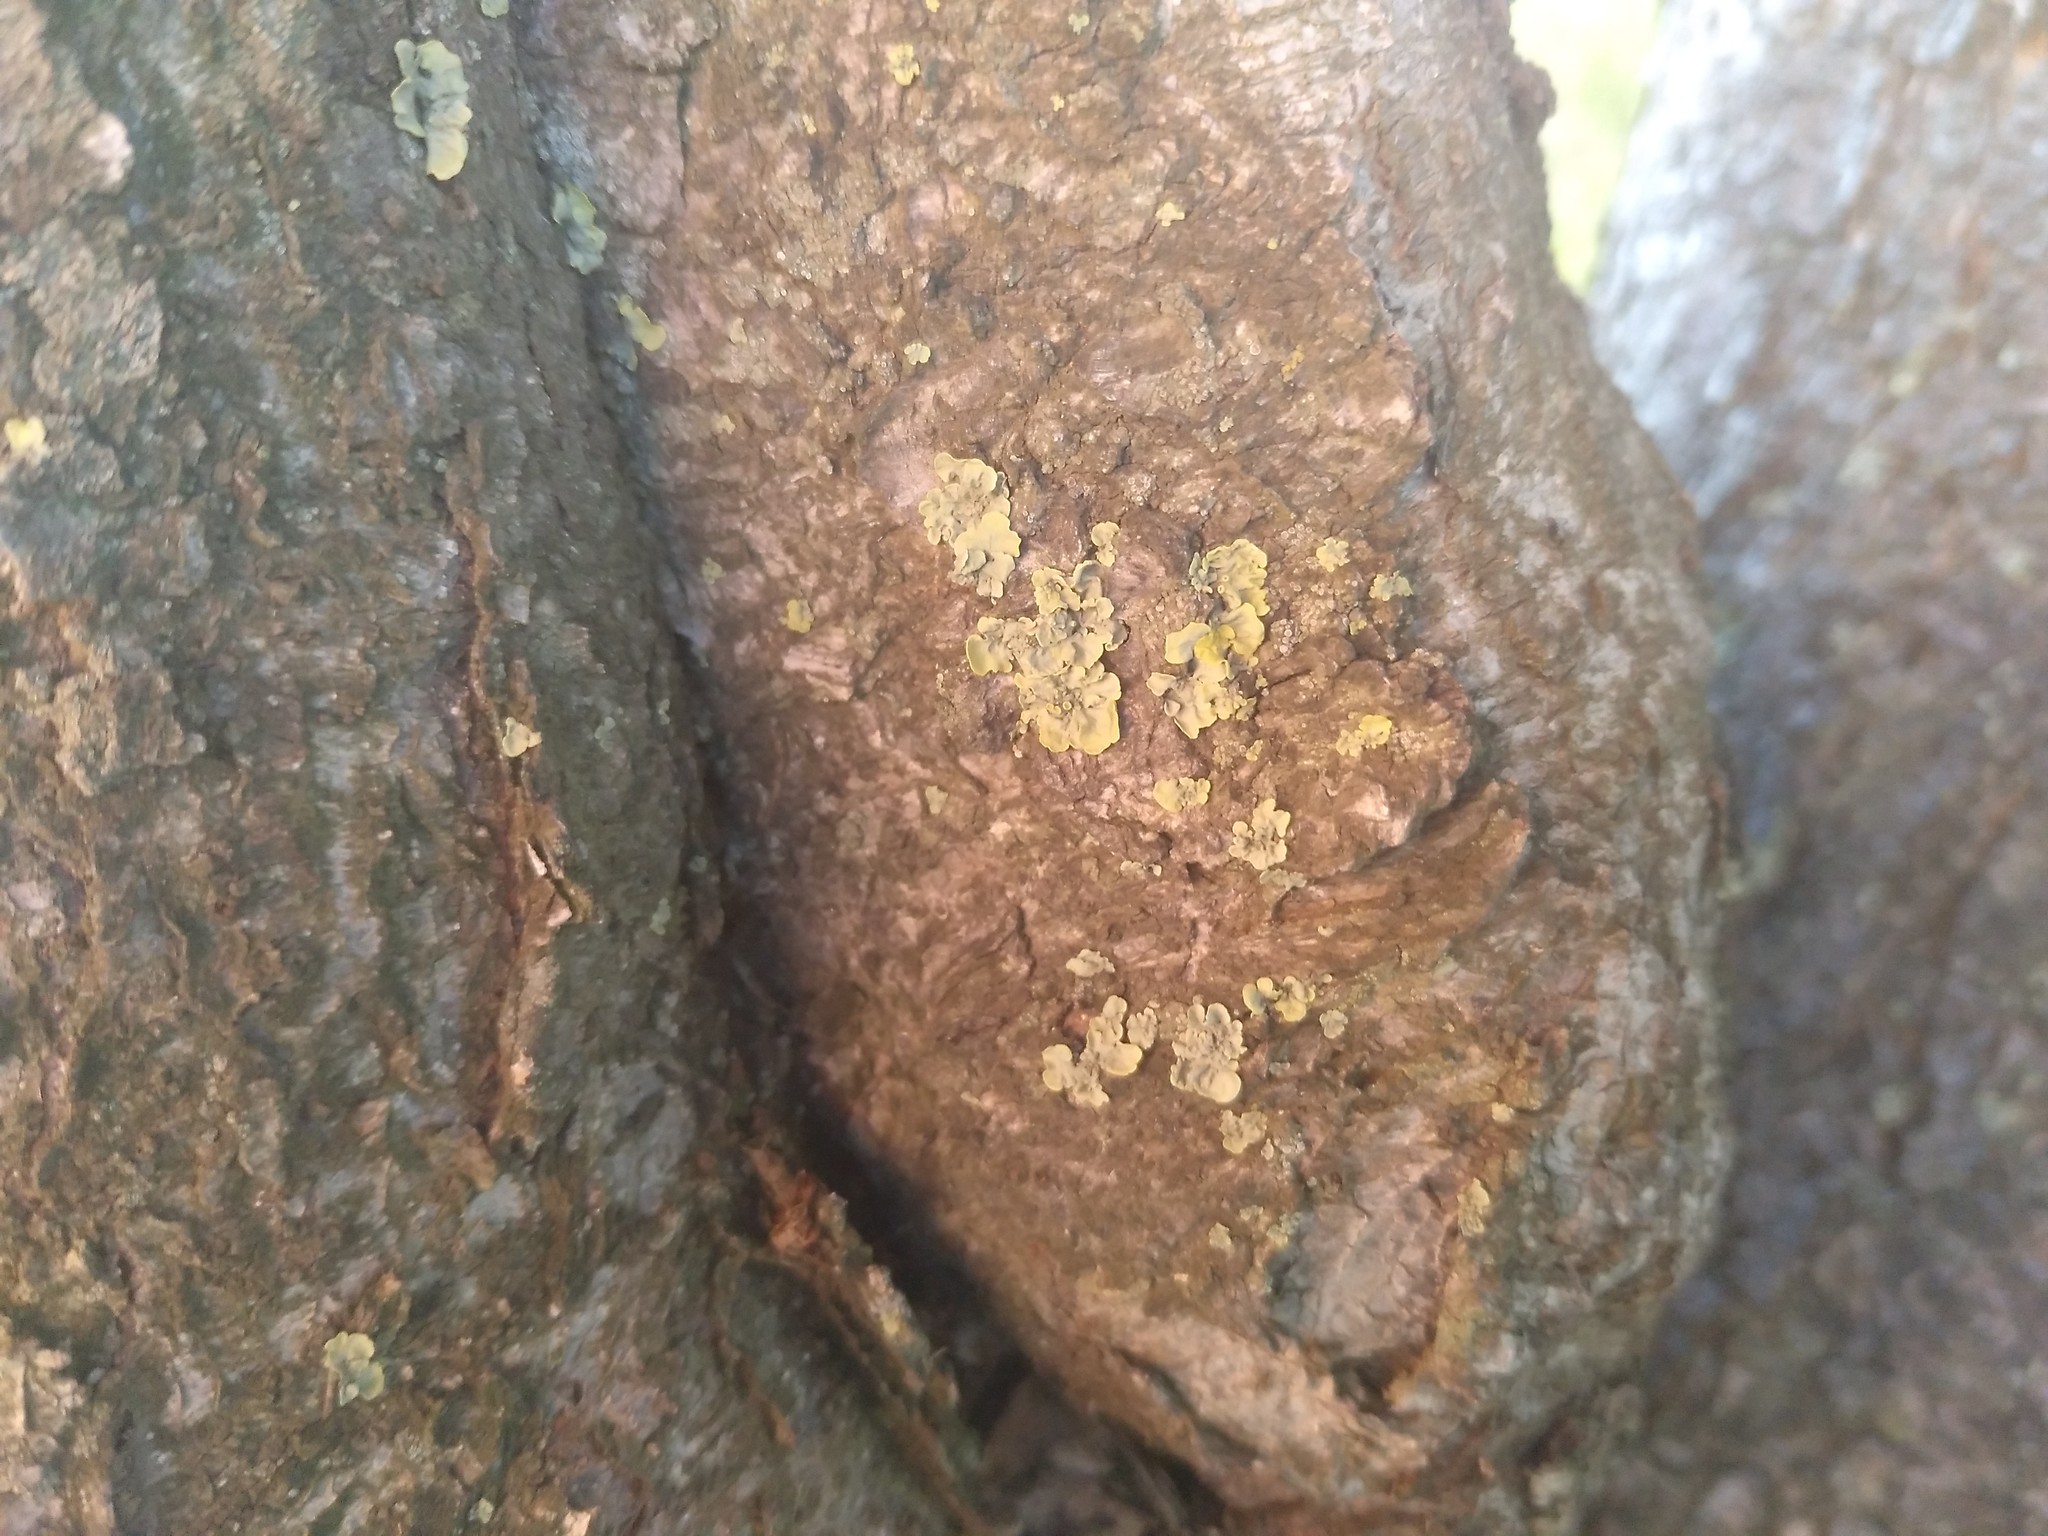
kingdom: Fungi
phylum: Ascomycota
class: Lecanoromycetes
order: Teloschistales
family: Teloschistaceae
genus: Xanthoria
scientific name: Xanthoria parietina
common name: Common orange lichen
